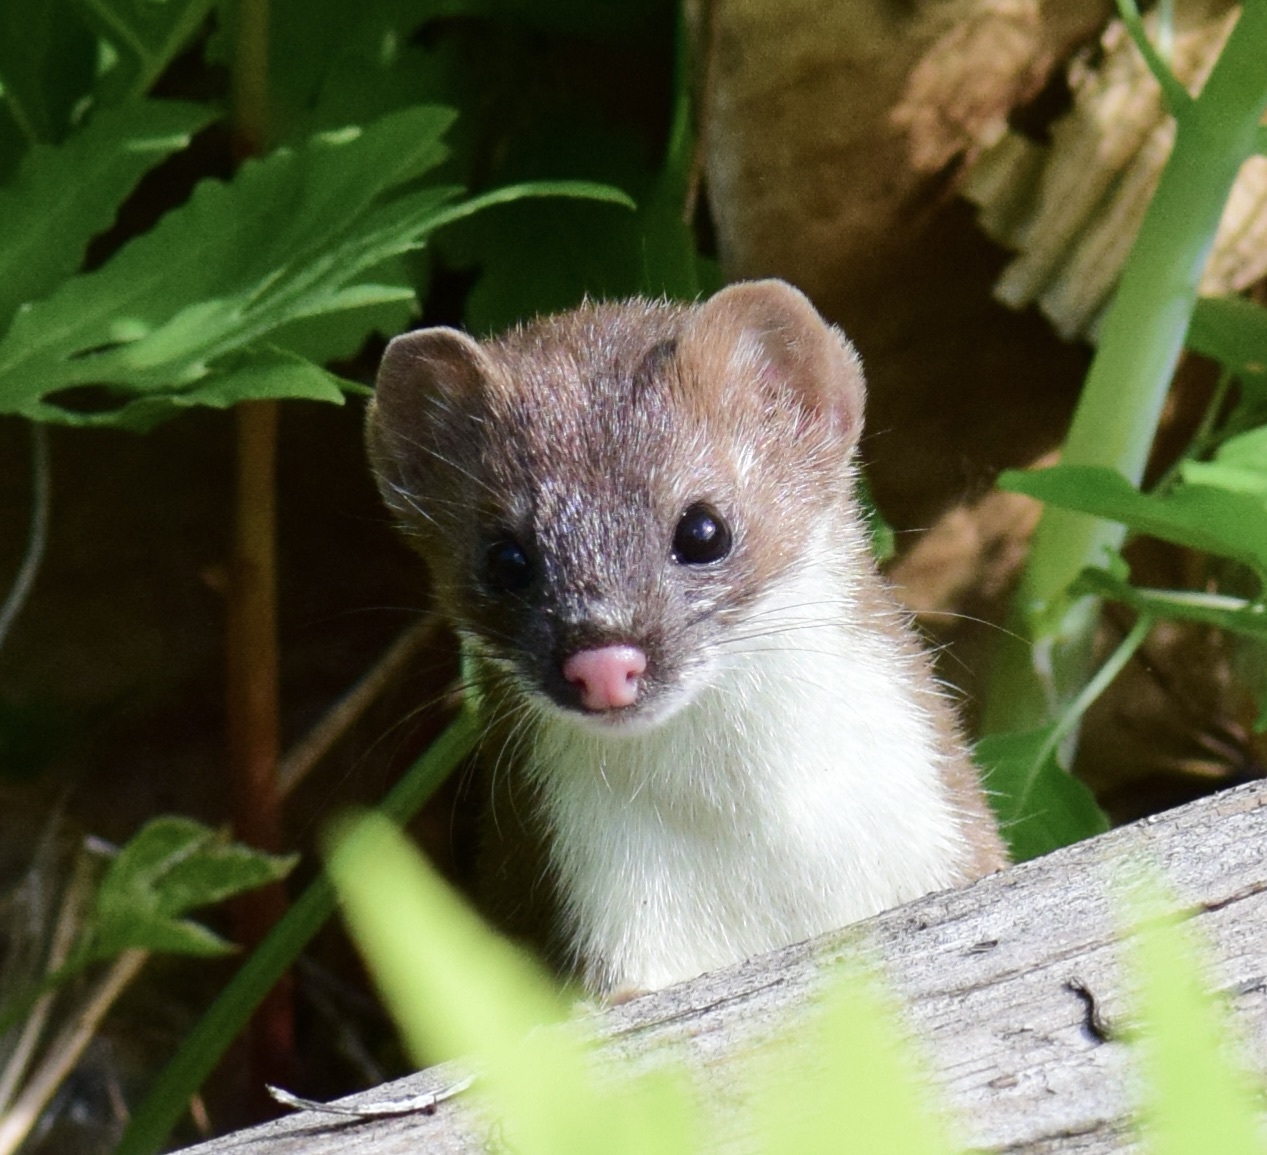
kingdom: Animalia
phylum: Chordata
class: Mammalia
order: Carnivora
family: Mustelidae
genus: Mustela
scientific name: Mustela
